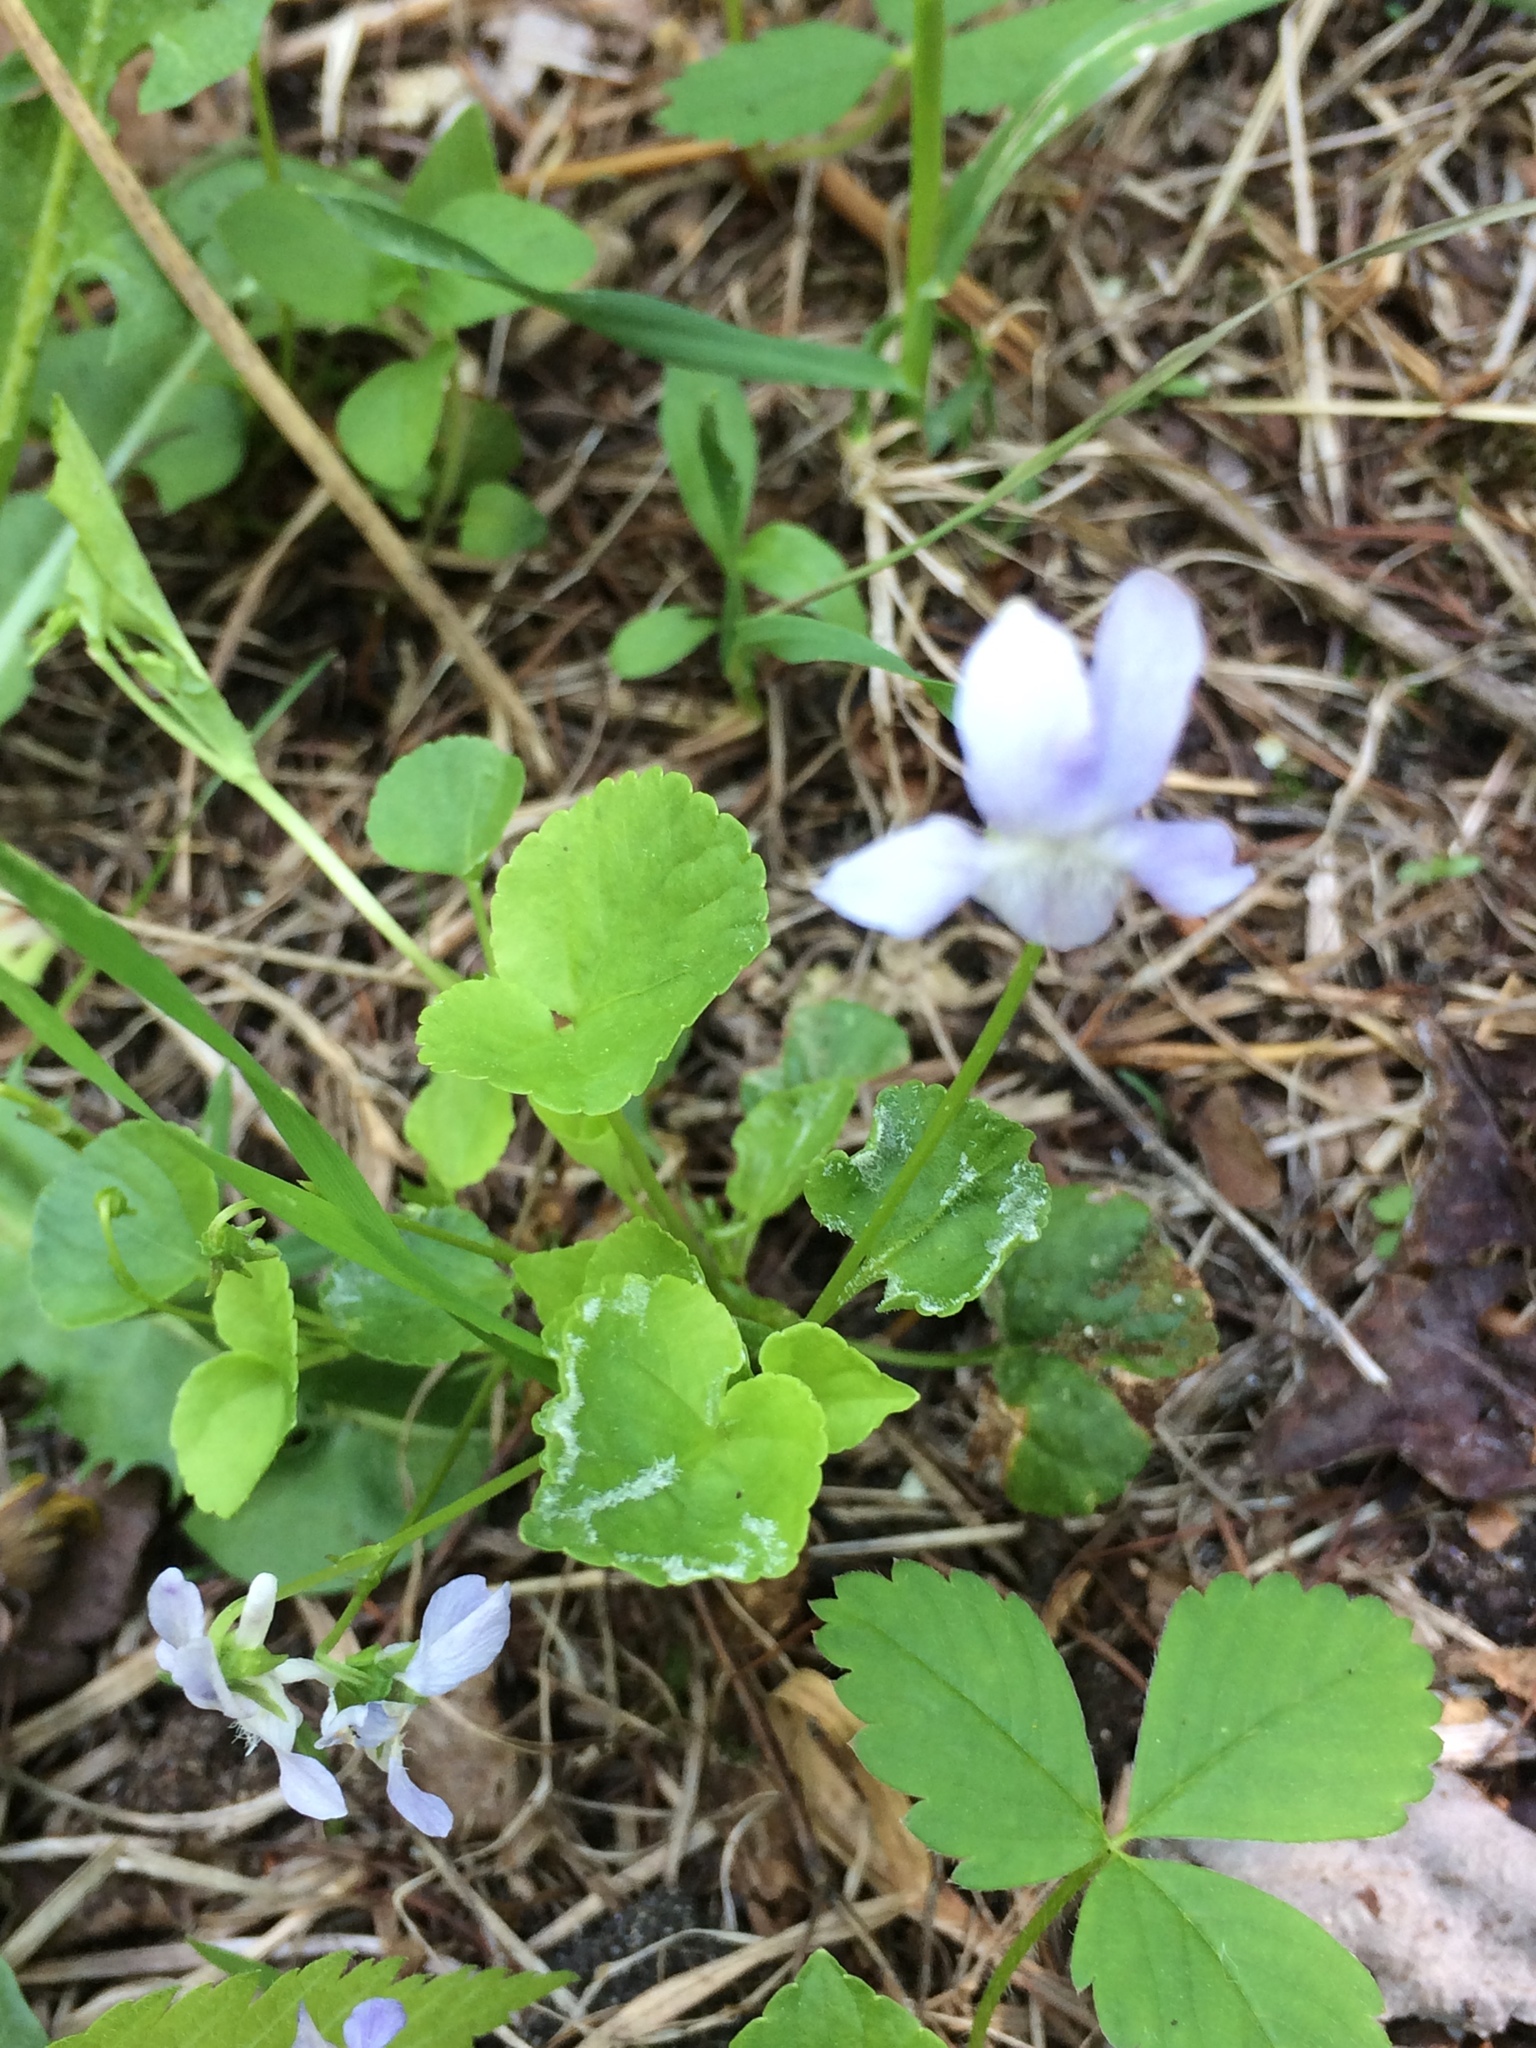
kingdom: Plantae
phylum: Tracheophyta
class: Magnoliopsida
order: Malpighiales
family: Violaceae
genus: Viola
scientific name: Viola labradorica
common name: Labrador violet
